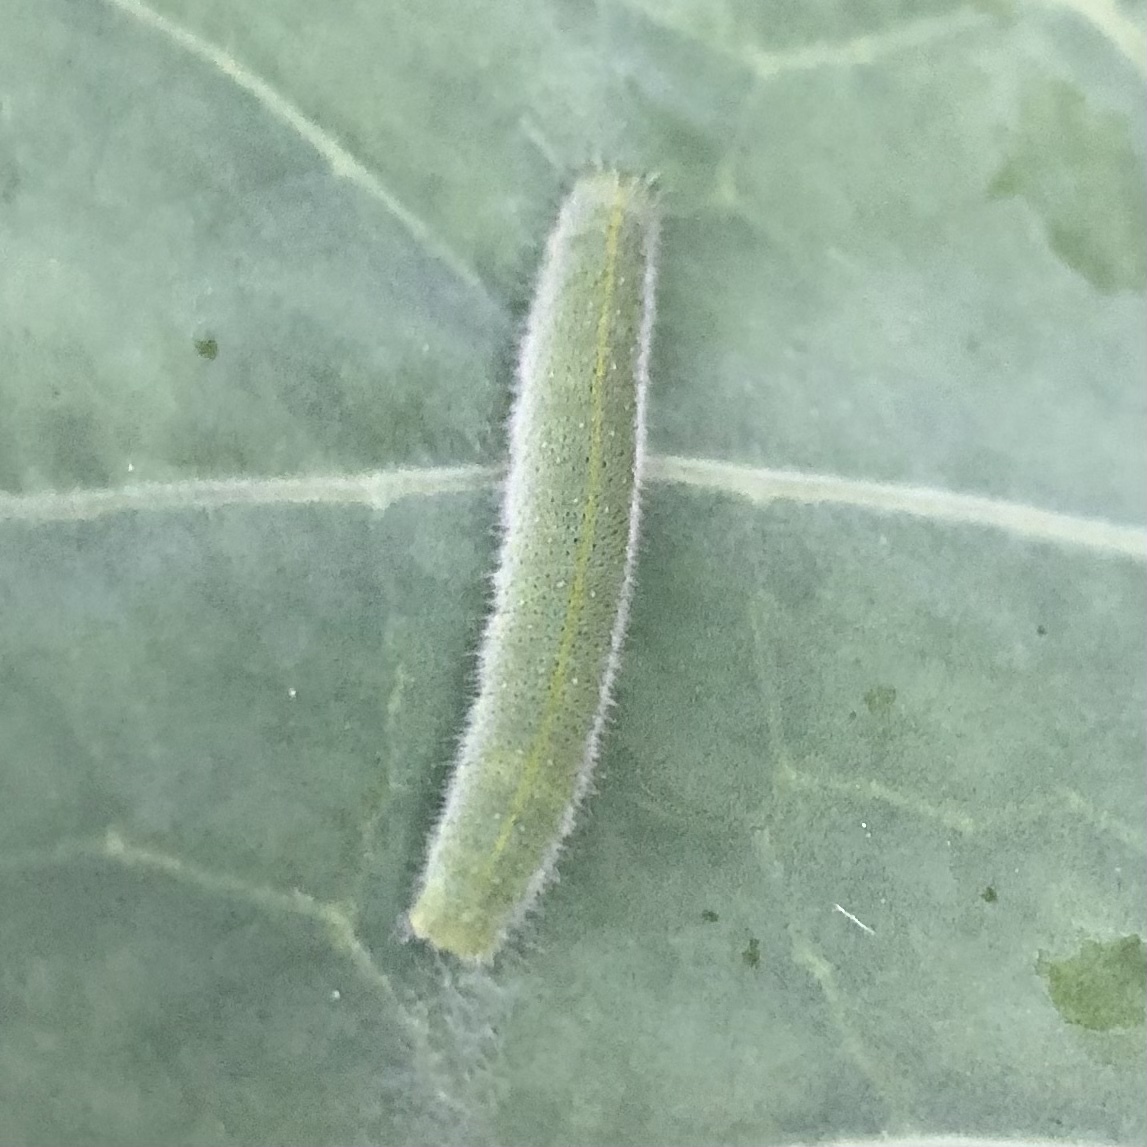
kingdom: Animalia
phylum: Arthropoda
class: Insecta
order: Lepidoptera
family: Pieridae
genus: Pieris
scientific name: Pieris rapae
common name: Small white
